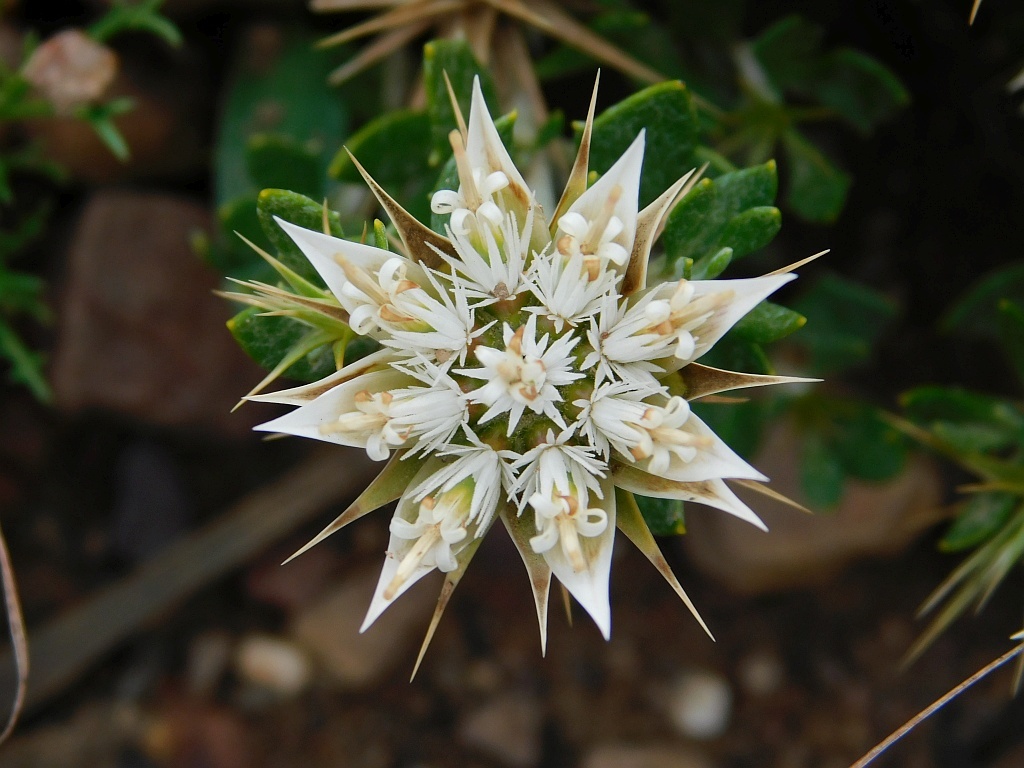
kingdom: Plantae
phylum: Tracheophyta
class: Magnoliopsida
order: Asterales
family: Asteraceae
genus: Macledium
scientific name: Macledium spinosum
